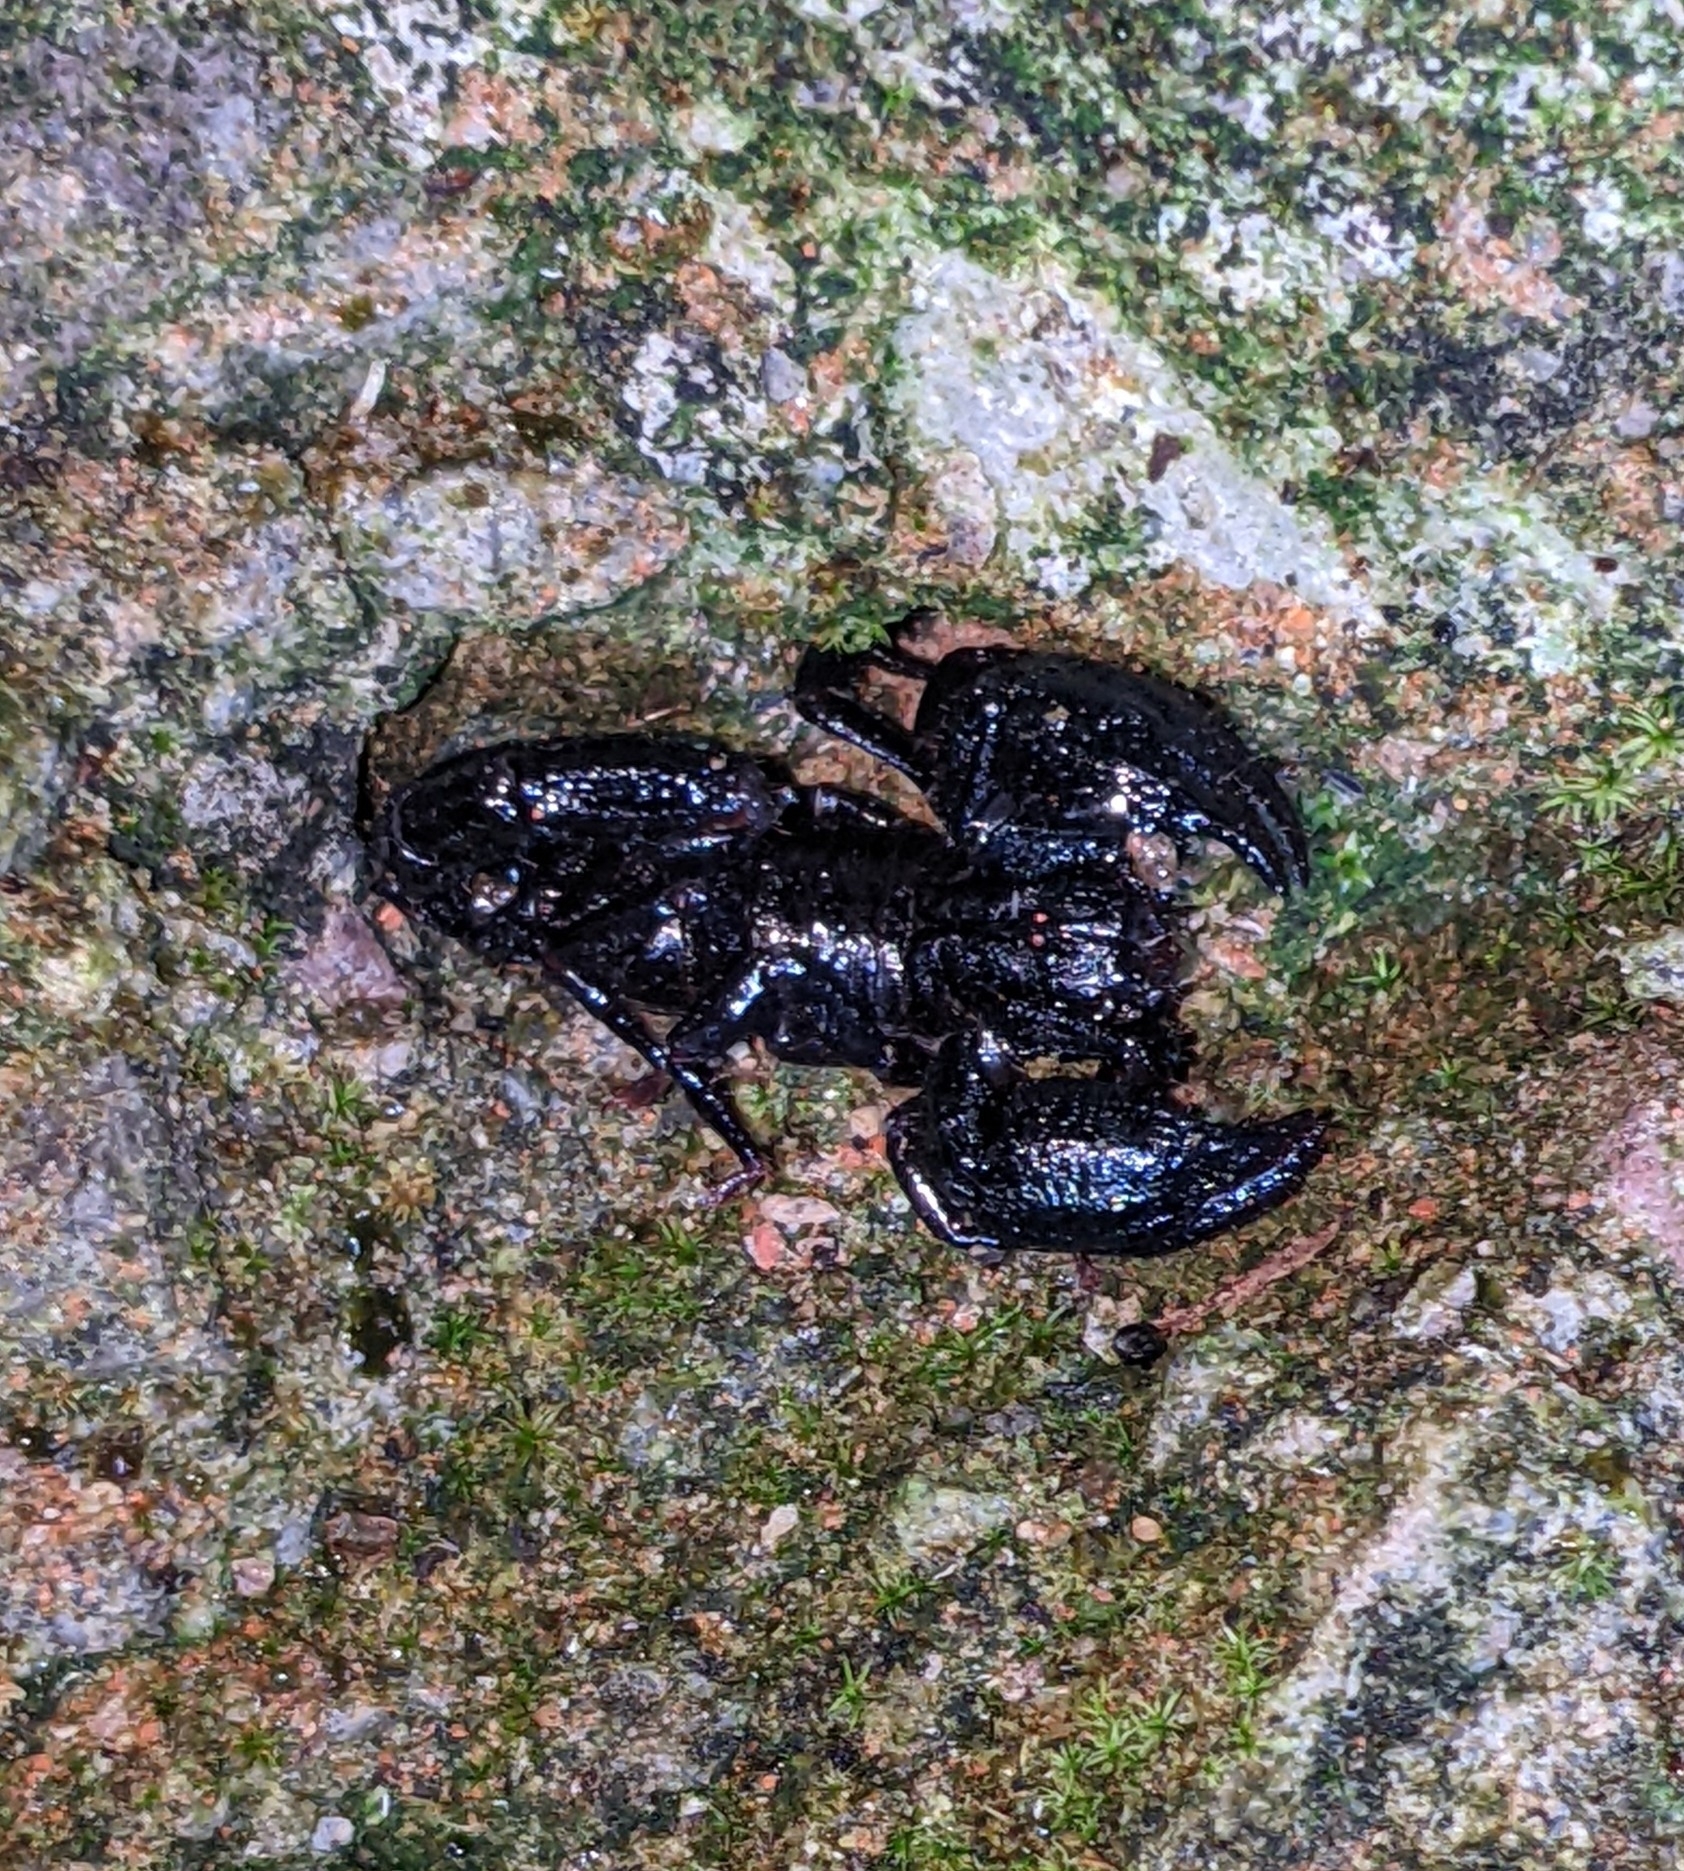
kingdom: Animalia
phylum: Arthropoda
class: Arachnida
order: Scorpiones
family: Chactidae
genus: Teuthraustes
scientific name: Teuthraustes atramentarius
